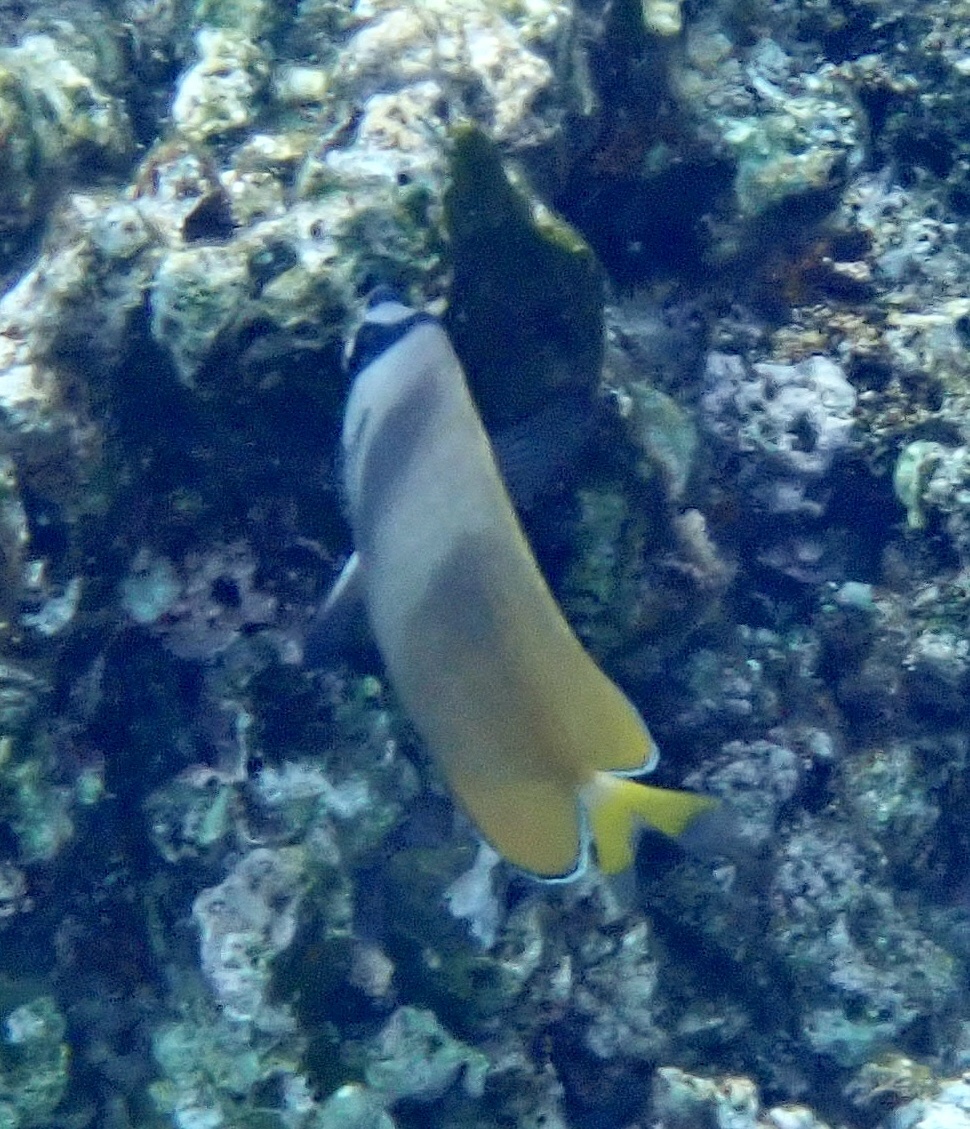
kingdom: Animalia
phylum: Chordata
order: Perciformes
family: Chaetodontidae
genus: Chaetodon
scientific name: Chaetodon kleinii
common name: Klein's butterflyfish
